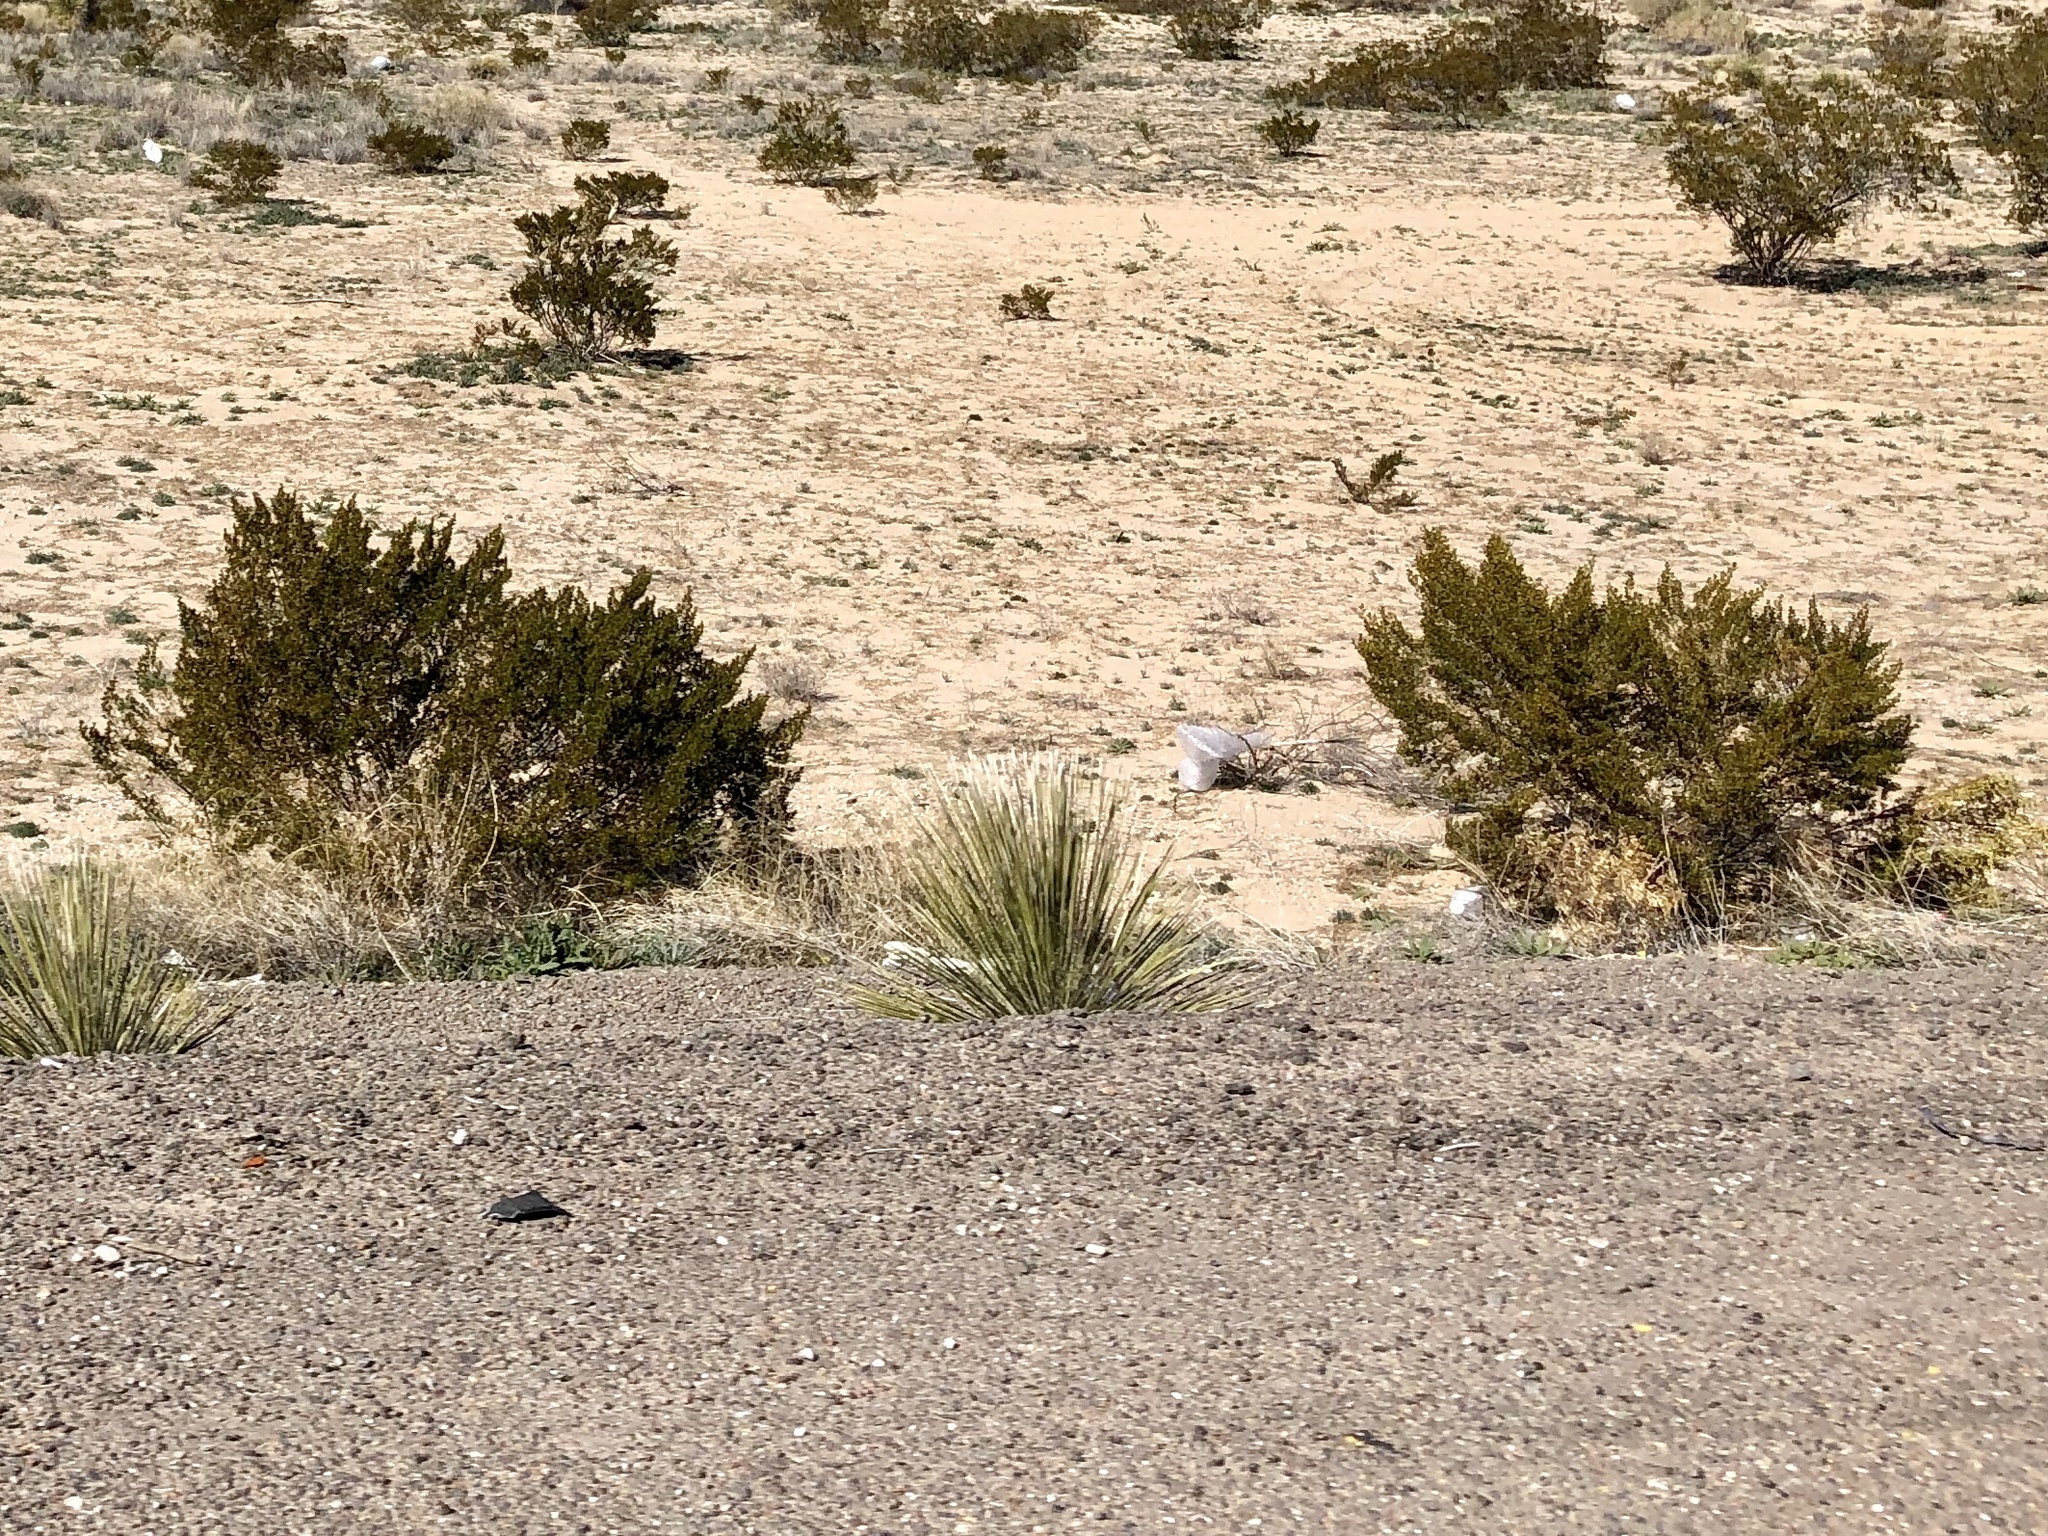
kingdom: Plantae
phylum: Tracheophyta
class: Magnoliopsida
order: Zygophyllales
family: Zygophyllaceae
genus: Larrea
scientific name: Larrea tridentata
